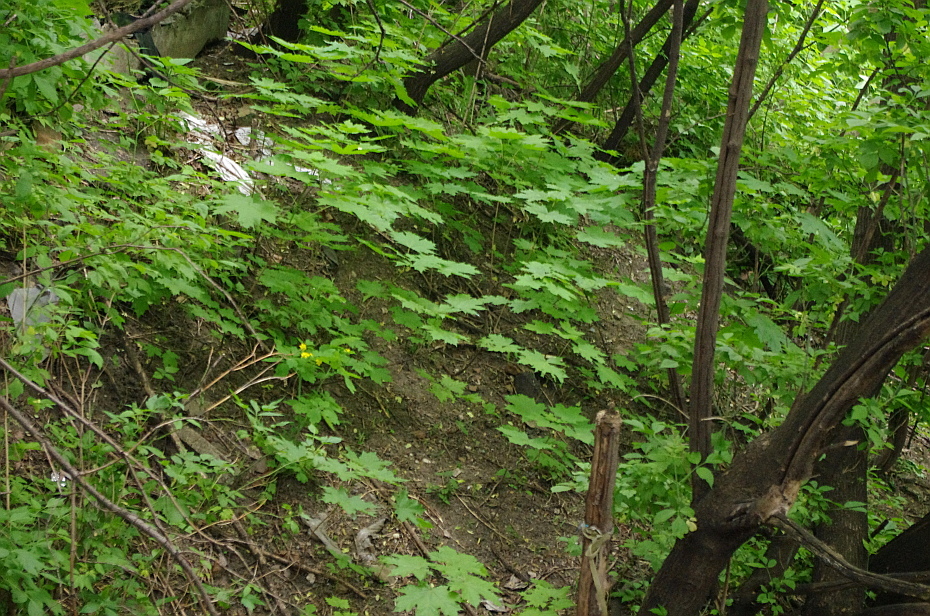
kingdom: Plantae
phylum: Tracheophyta
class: Magnoliopsida
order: Sapindales
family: Sapindaceae
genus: Acer
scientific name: Acer platanoides
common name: Norway maple
